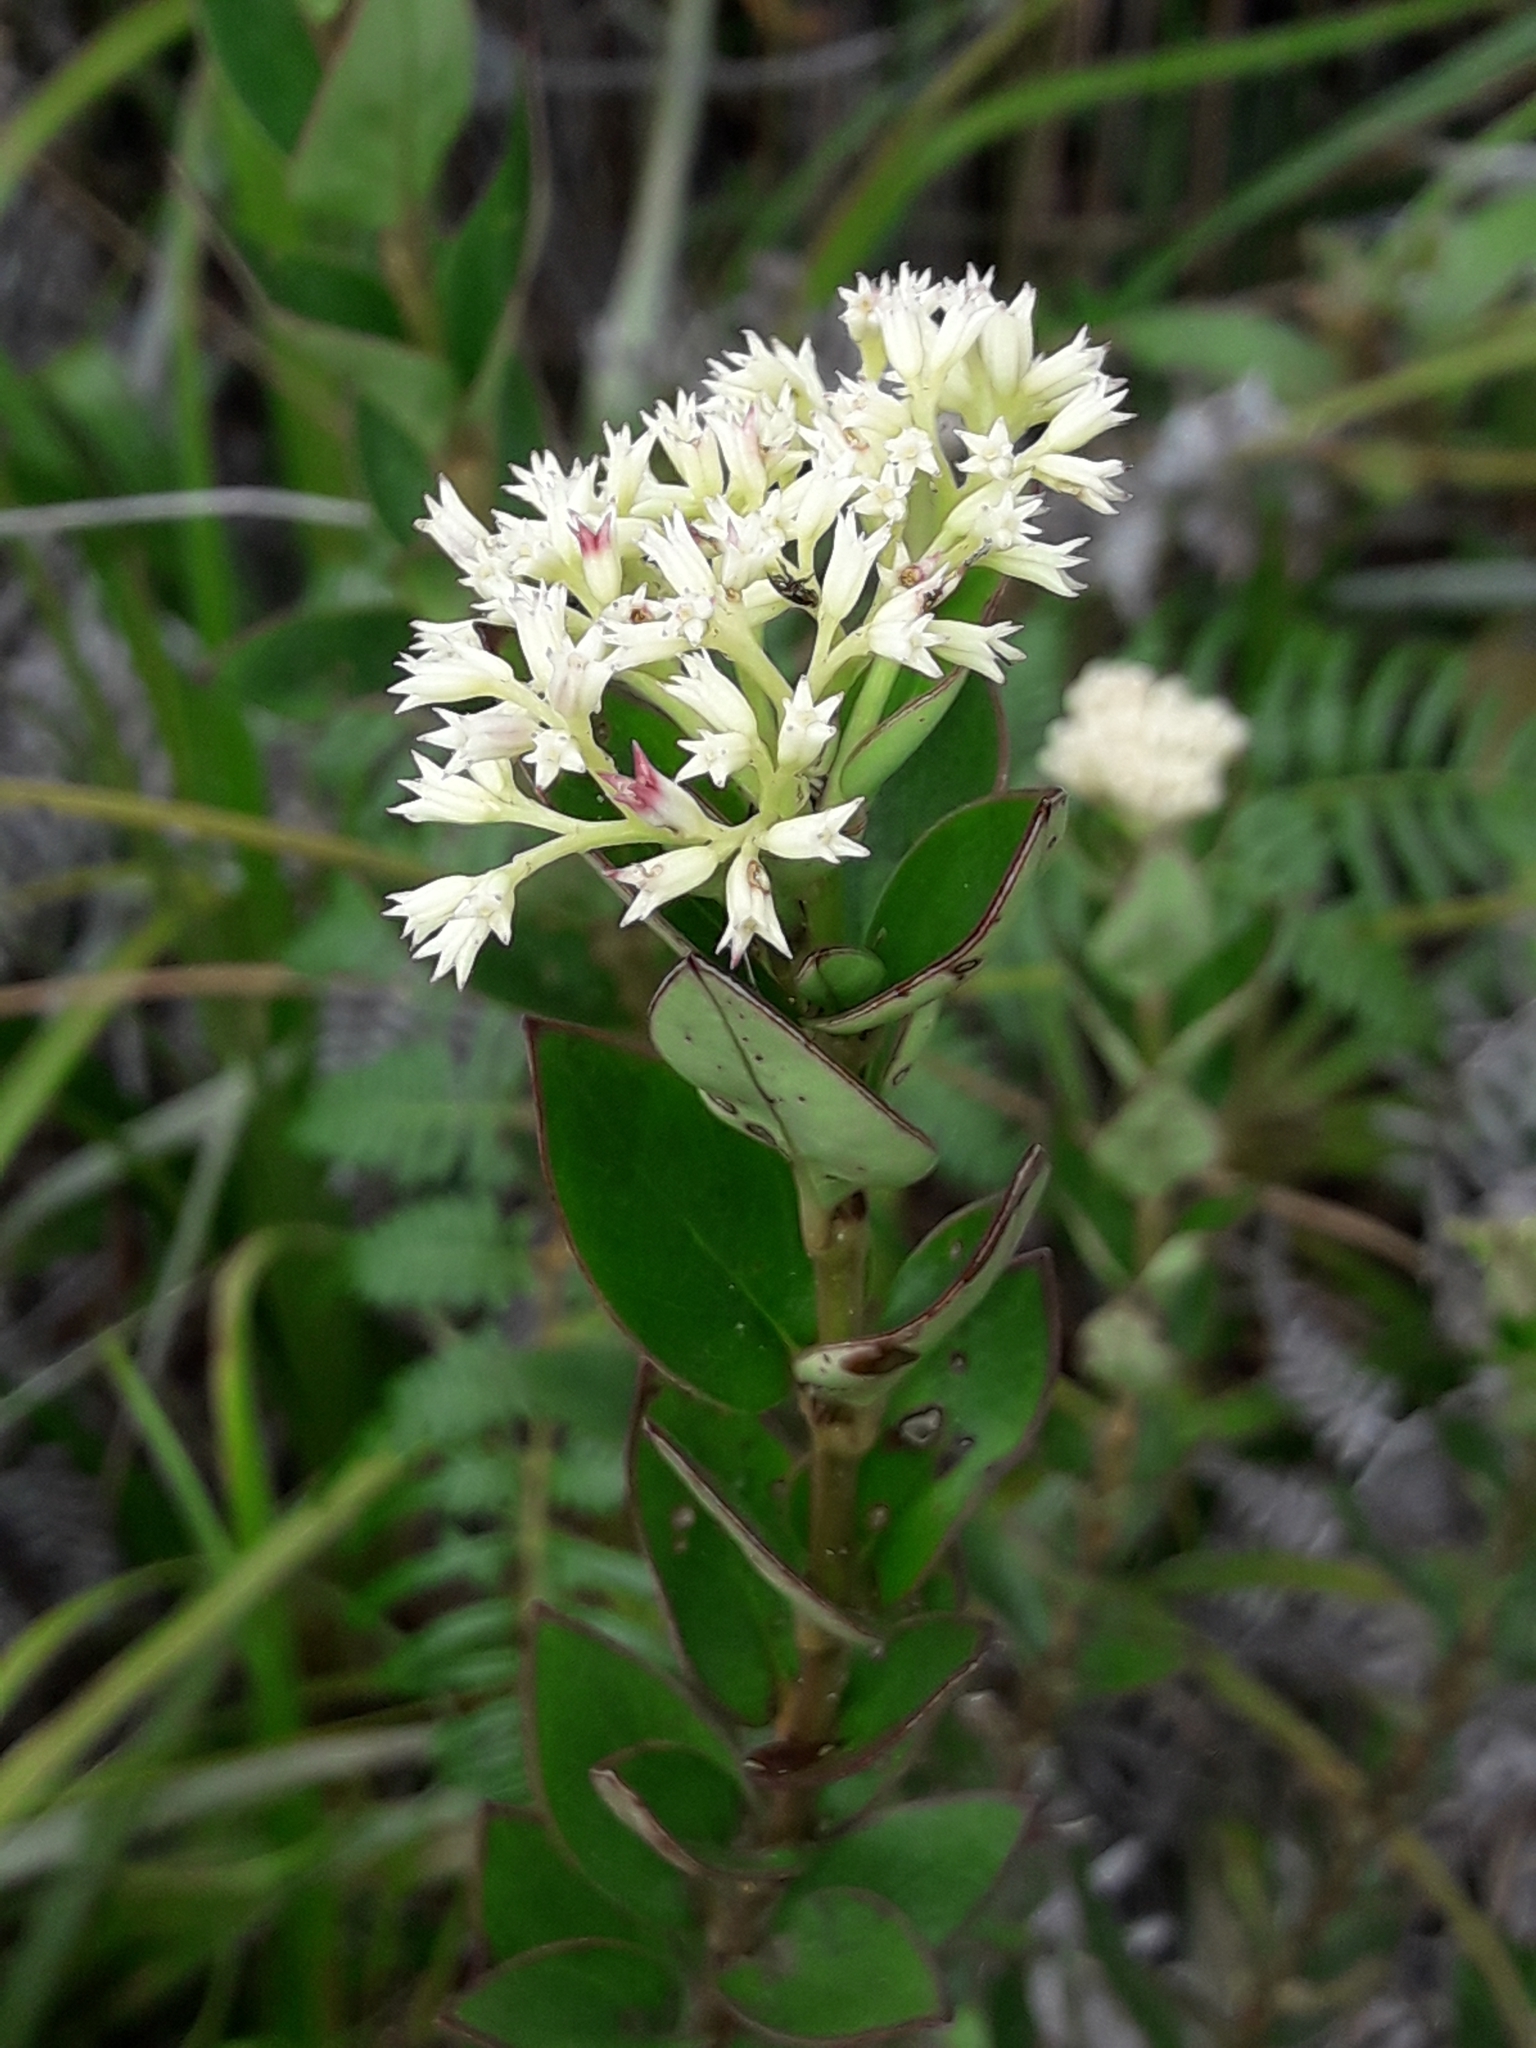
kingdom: Plantae
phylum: Tracheophyta
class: Magnoliopsida
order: Gentianales
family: Rubiaceae
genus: Normandia
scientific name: Normandia neocaledonica
